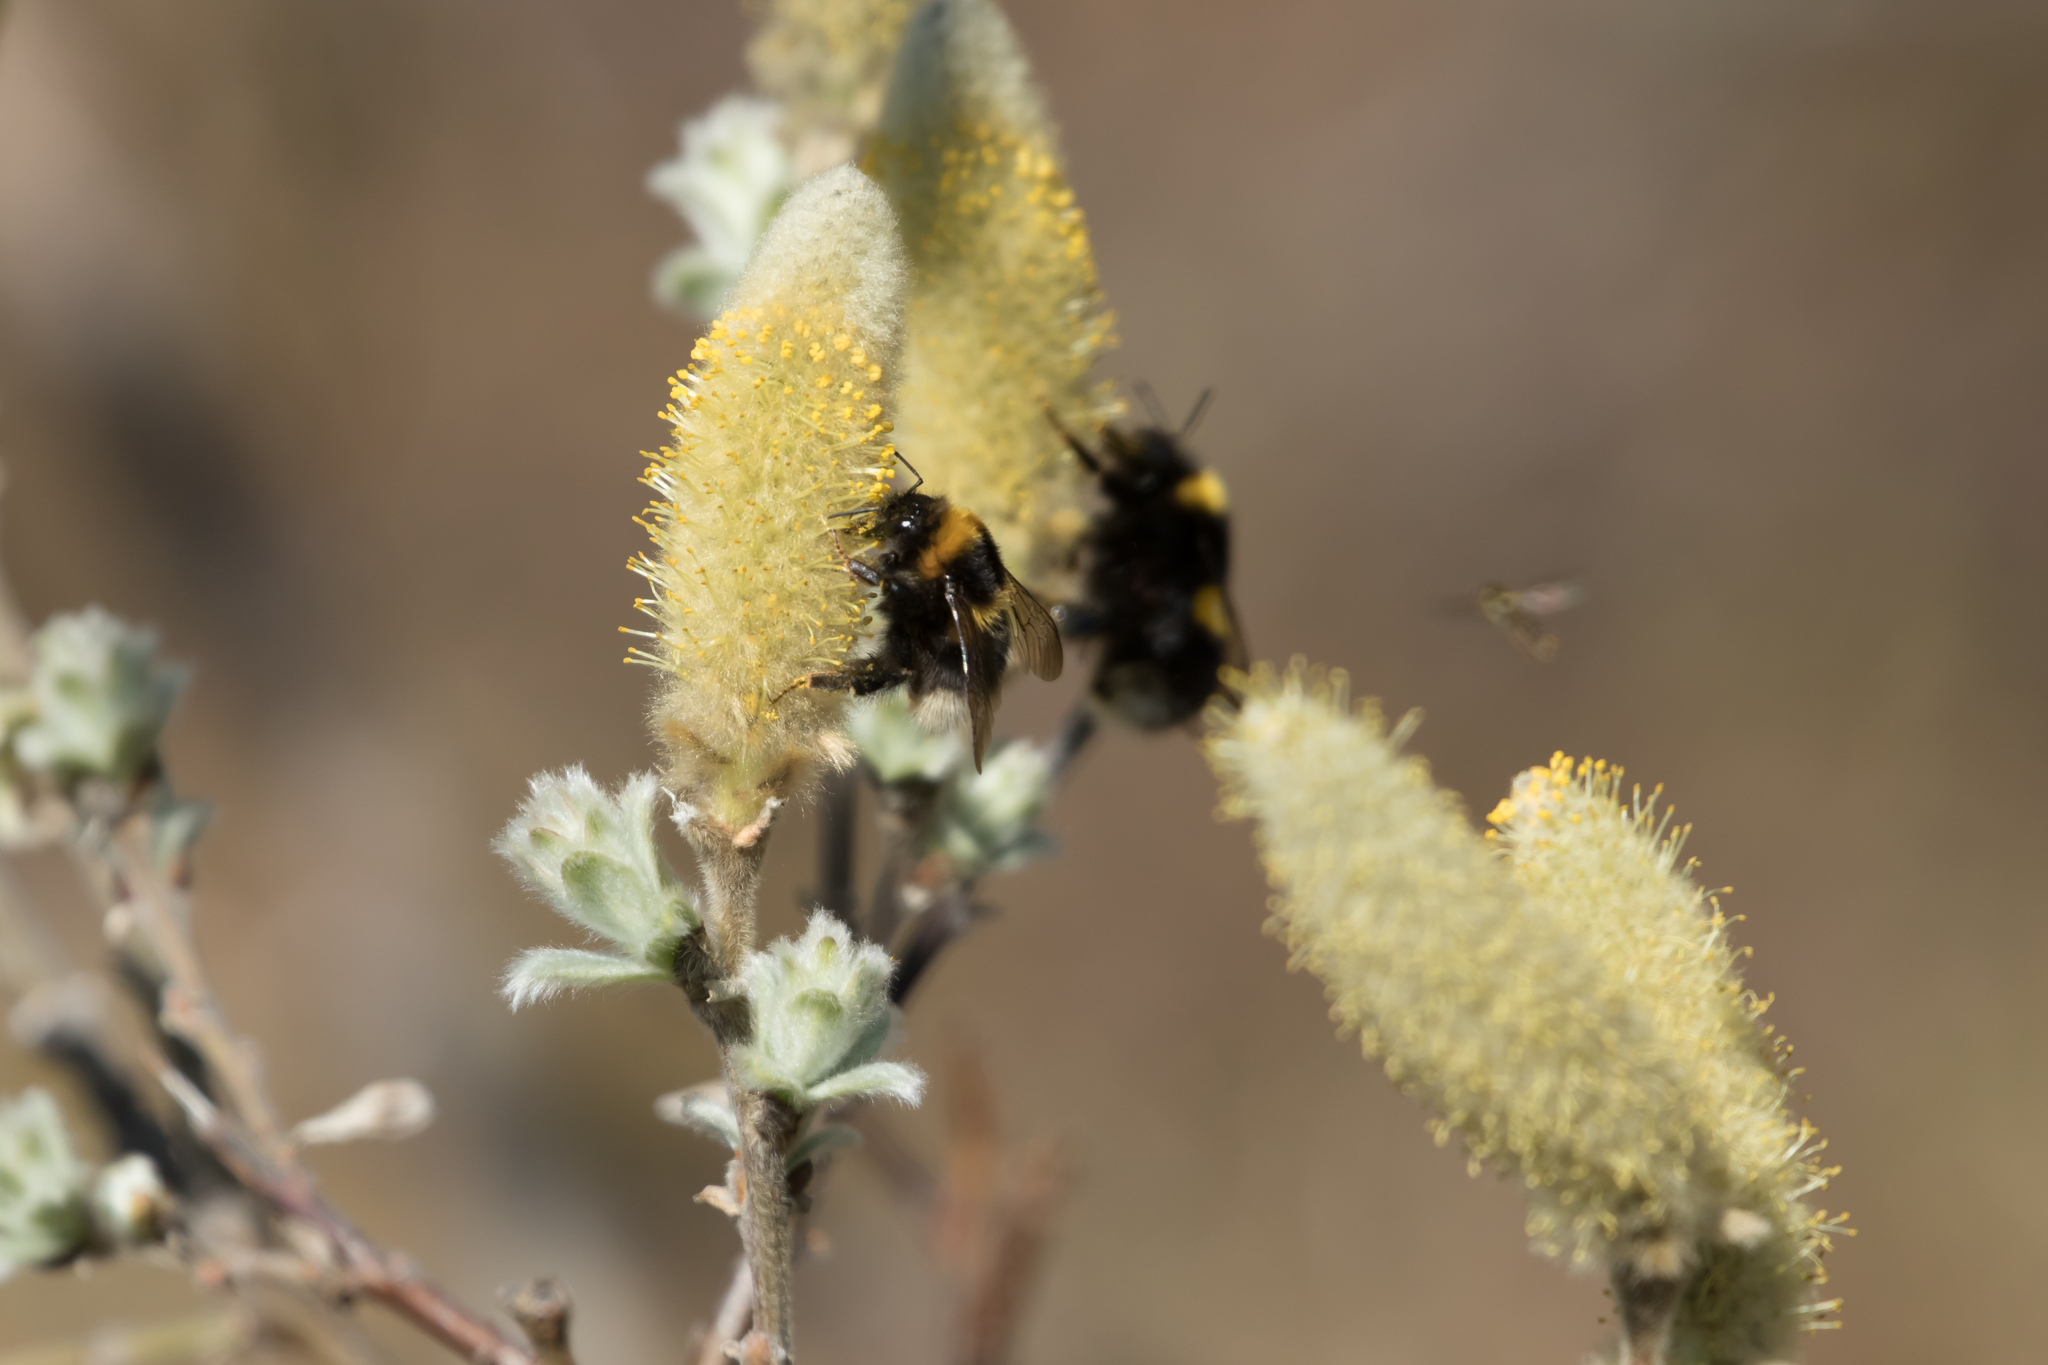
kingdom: Animalia
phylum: Arthropoda
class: Insecta
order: Hymenoptera
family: Apidae
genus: Bombus
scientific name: Bombus lucorum
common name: White-tailed bumblebee
